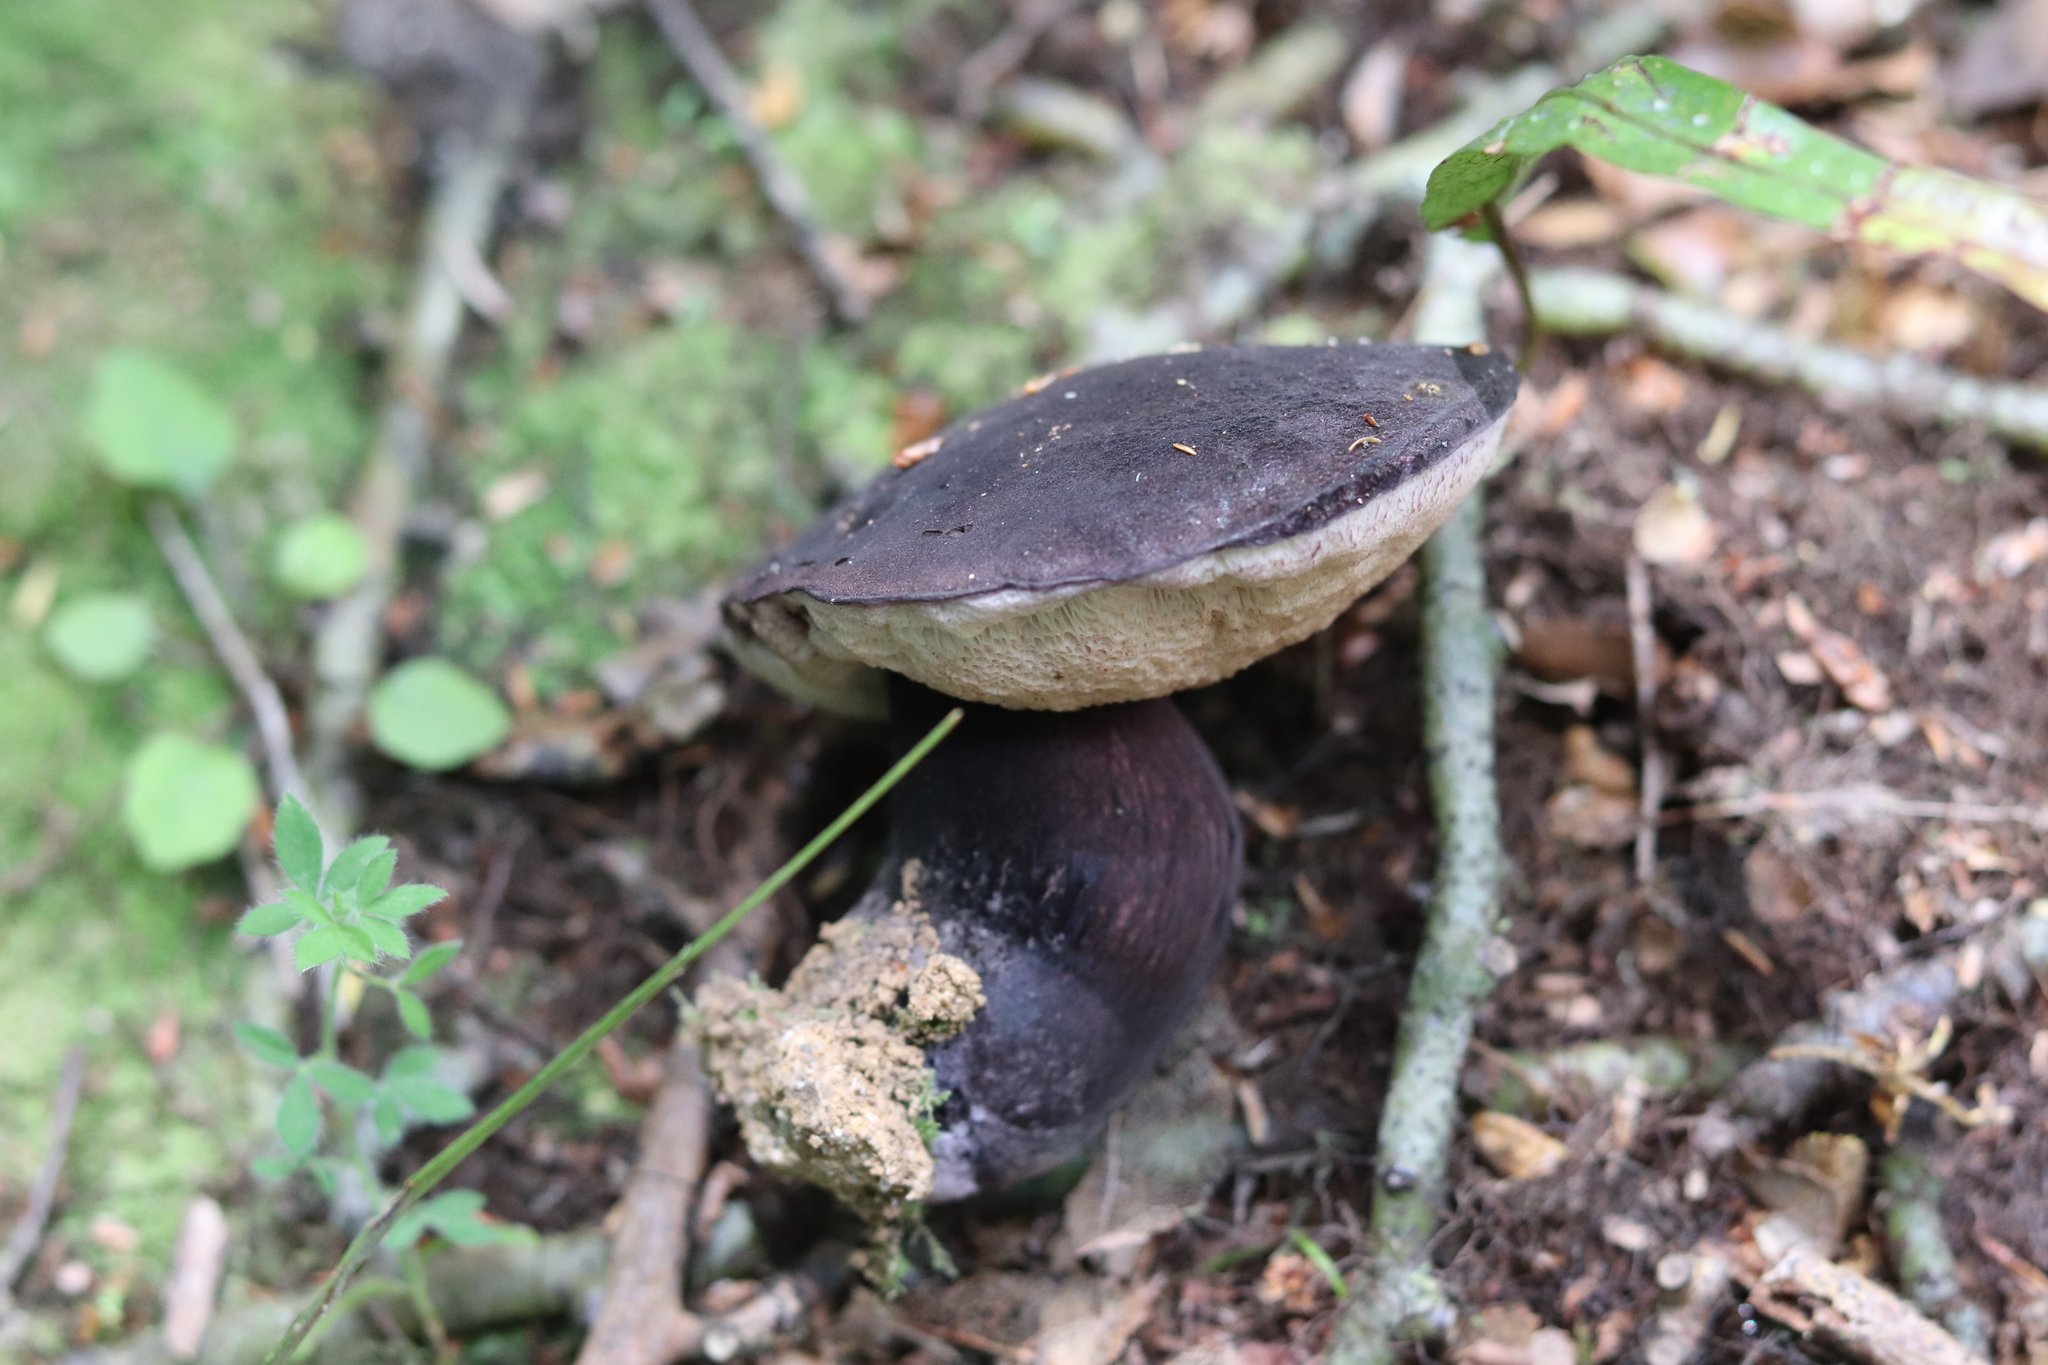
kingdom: Fungi
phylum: Basidiomycota
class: Agaricomycetes
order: Boletales
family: Boletaceae
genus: Porphyrellus
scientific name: Porphyrellus formosus
